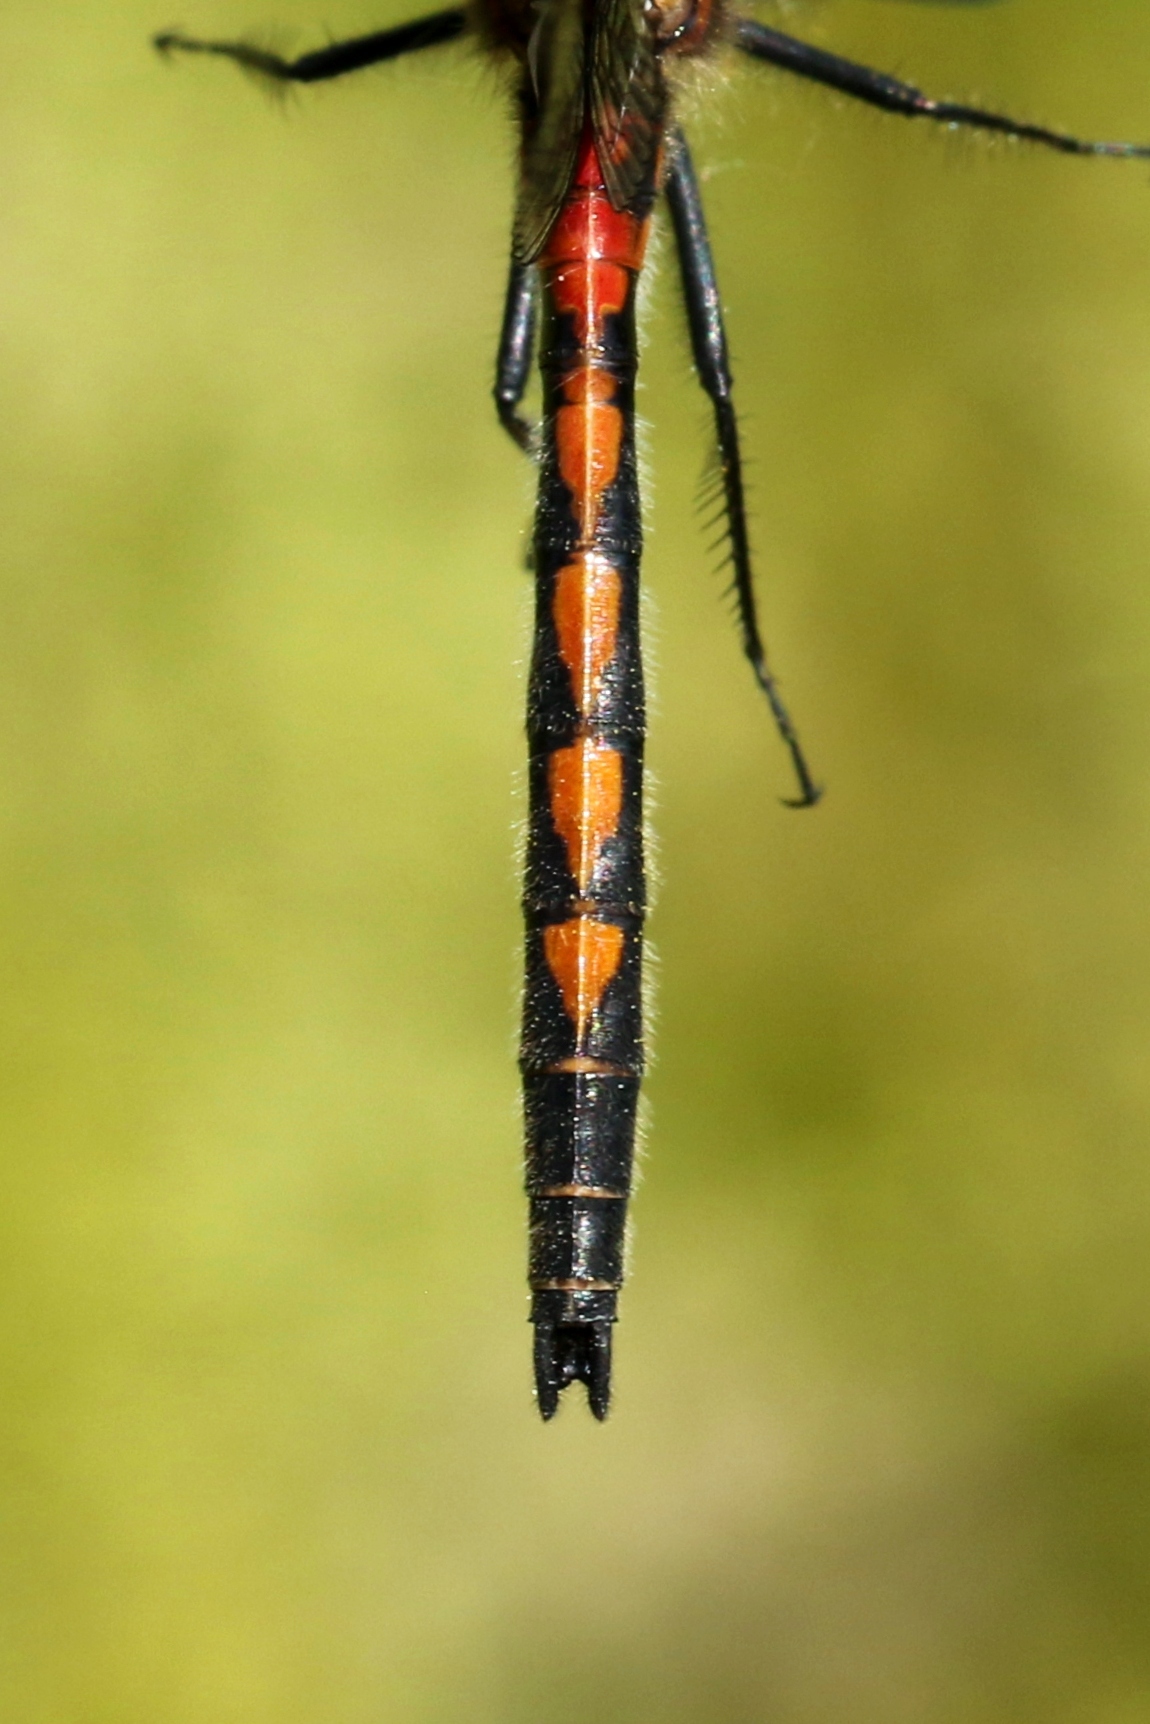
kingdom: Animalia
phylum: Arthropoda
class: Insecta
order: Odonata
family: Libellulidae
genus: Leucorrhinia
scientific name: Leucorrhinia hudsonica
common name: Hudsonian whiteface
